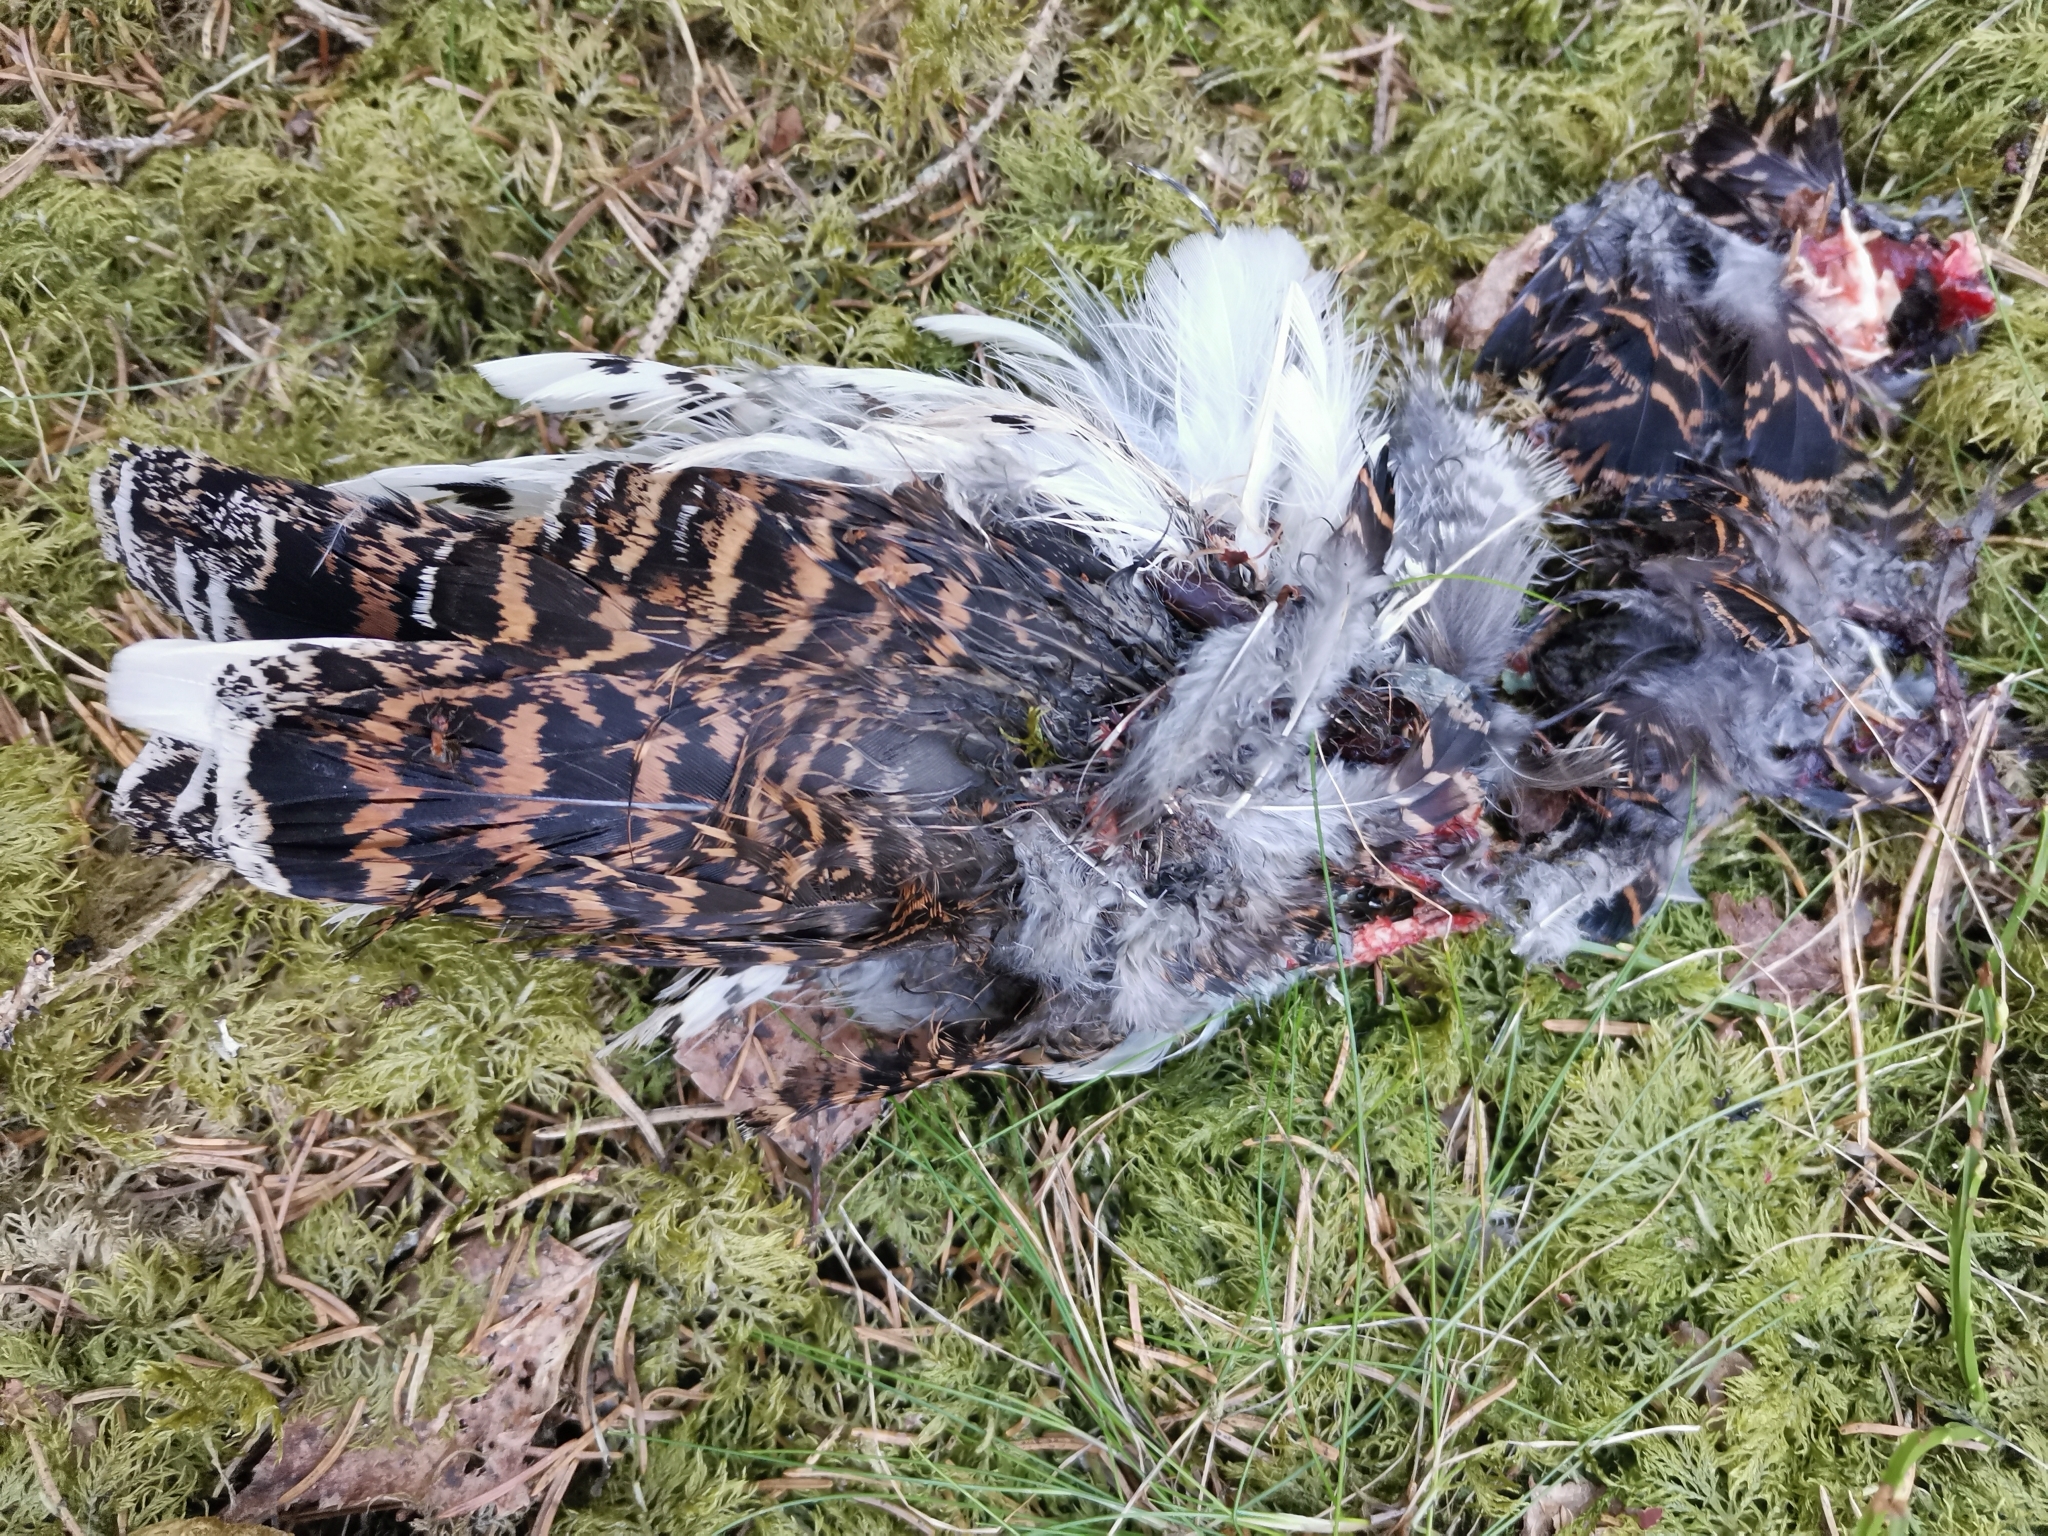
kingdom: Animalia
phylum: Chordata
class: Aves
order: Galliformes
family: Phasianidae
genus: Tetrastes
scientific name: Tetrastes bonasia
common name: Hazel grouse
